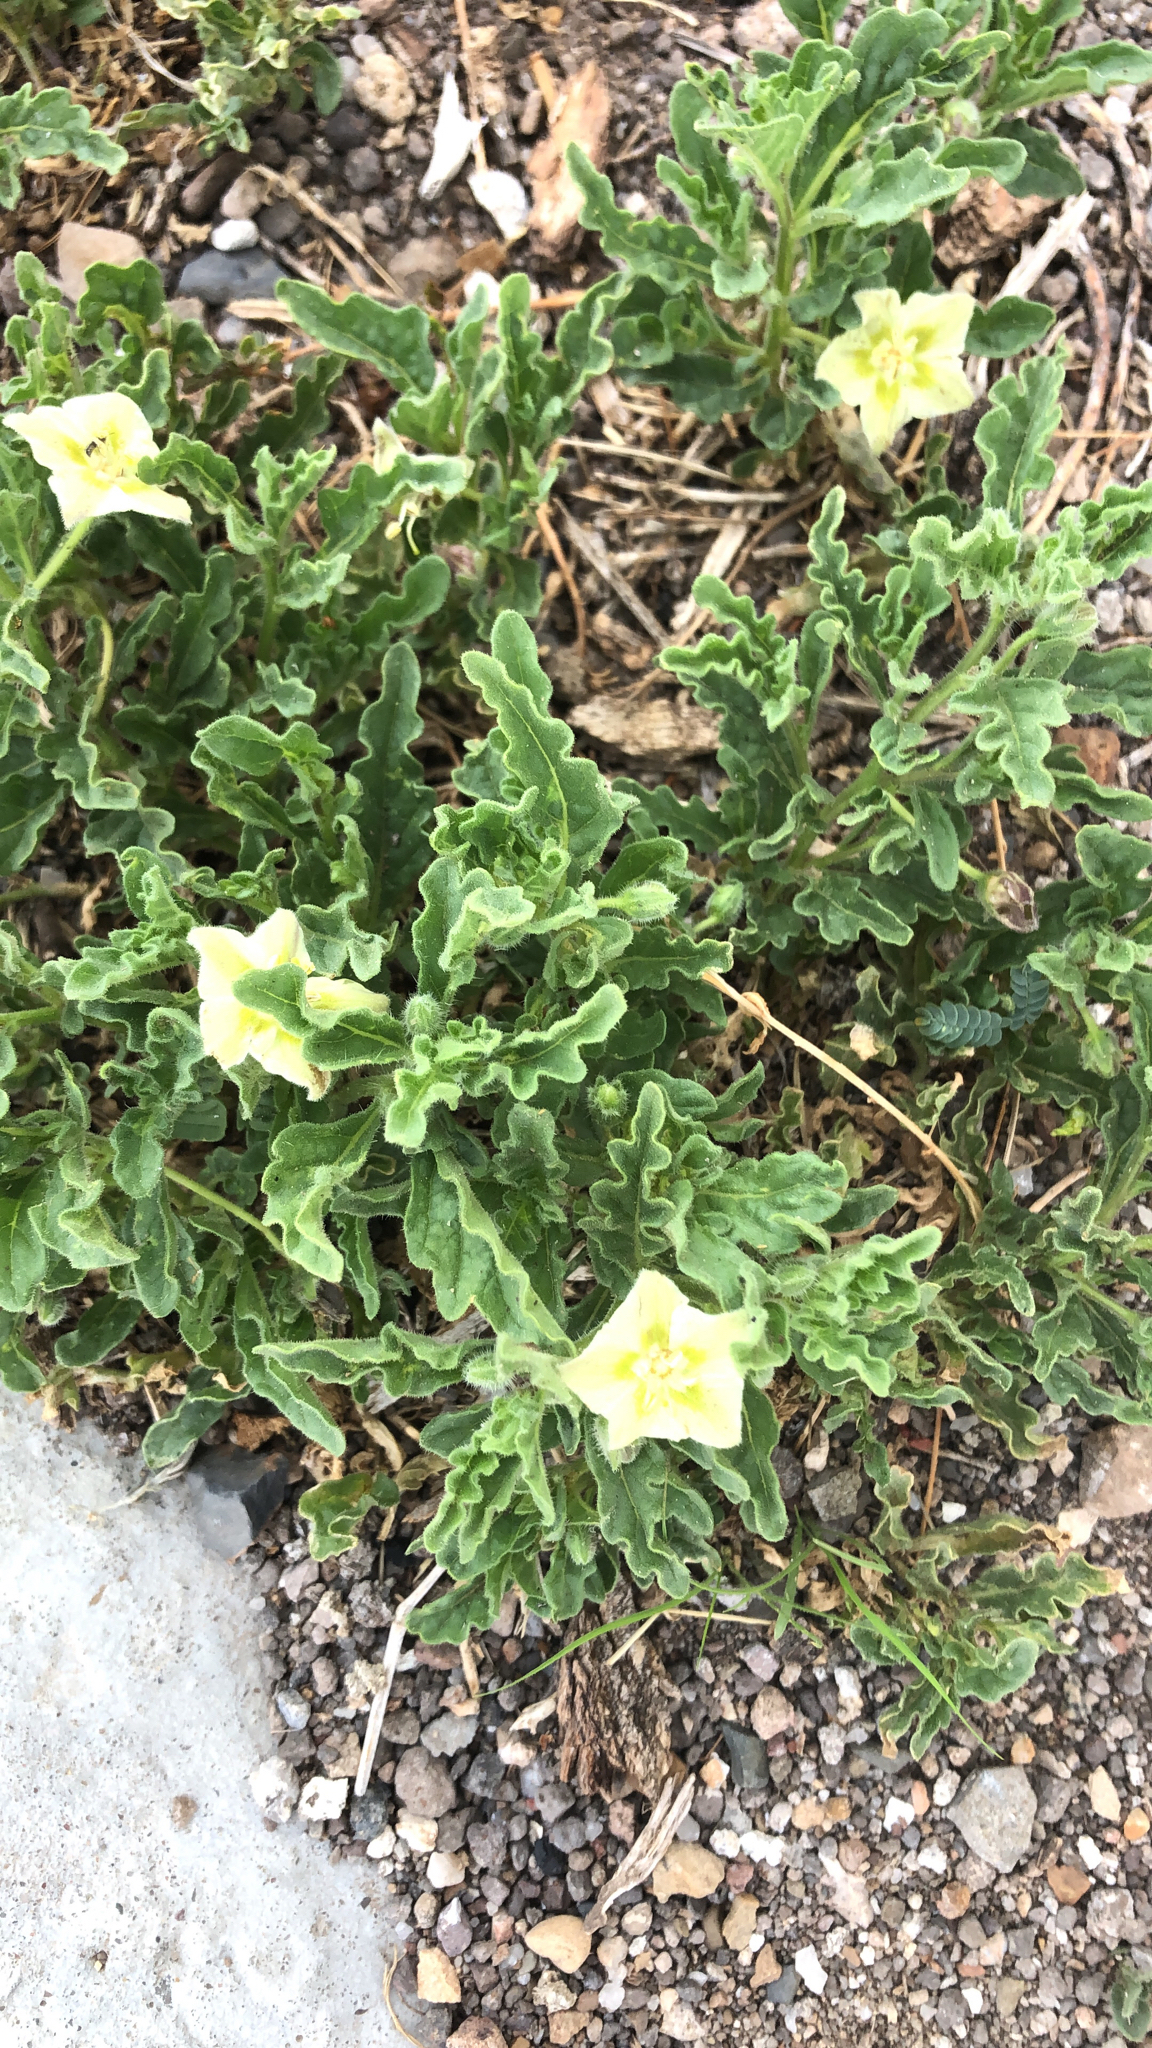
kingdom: Plantae
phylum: Tracheophyta
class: Magnoliopsida
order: Solanales
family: Solanaceae
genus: Chamaesaracha
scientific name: Chamaesaracha sordida
